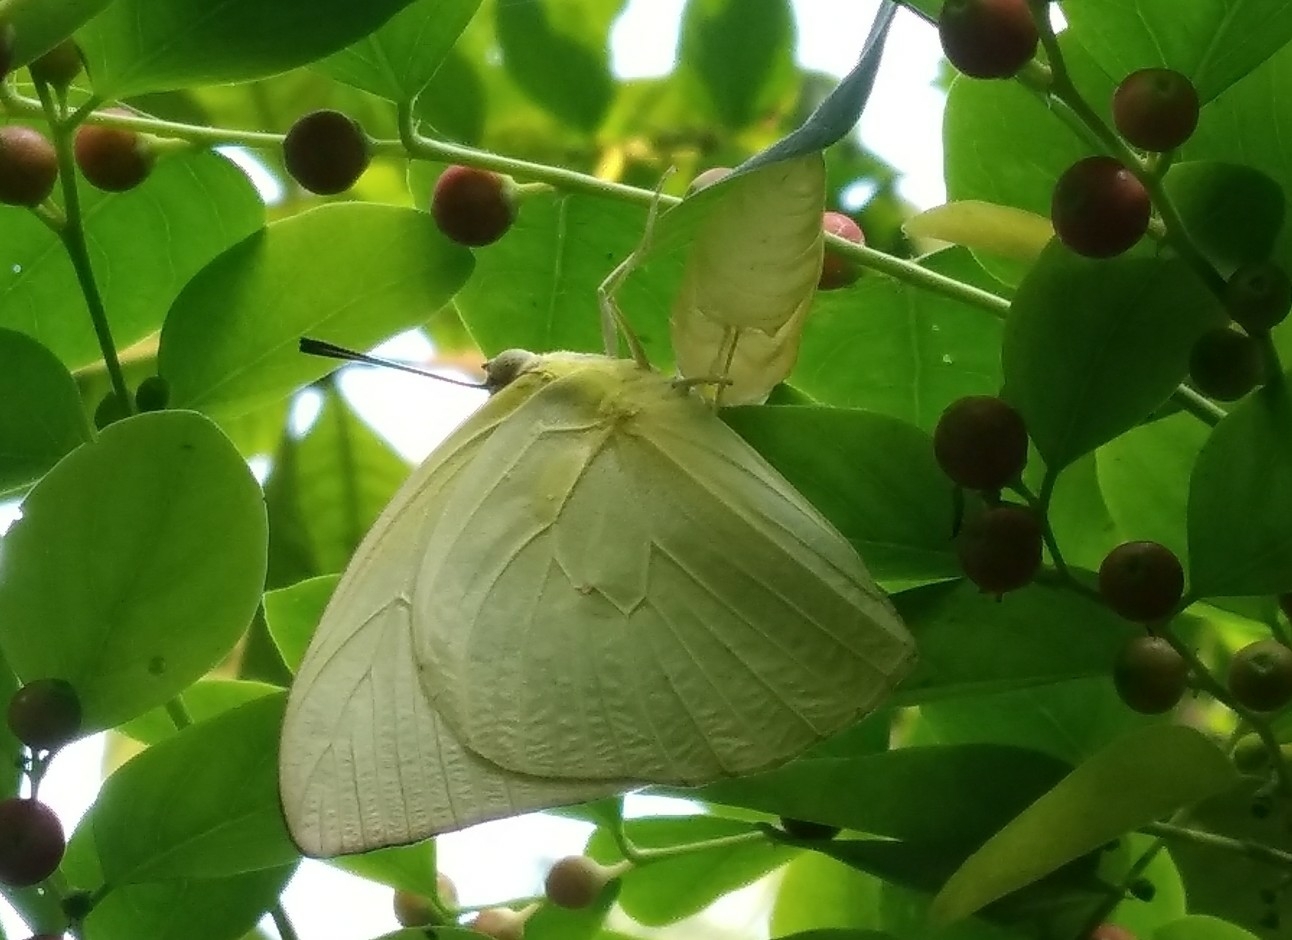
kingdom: Animalia
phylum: Arthropoda
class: Insecta
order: Lepidoptera
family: Pieridae
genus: Catopsilia
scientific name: Catopsilia pomona
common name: Common emigrant
